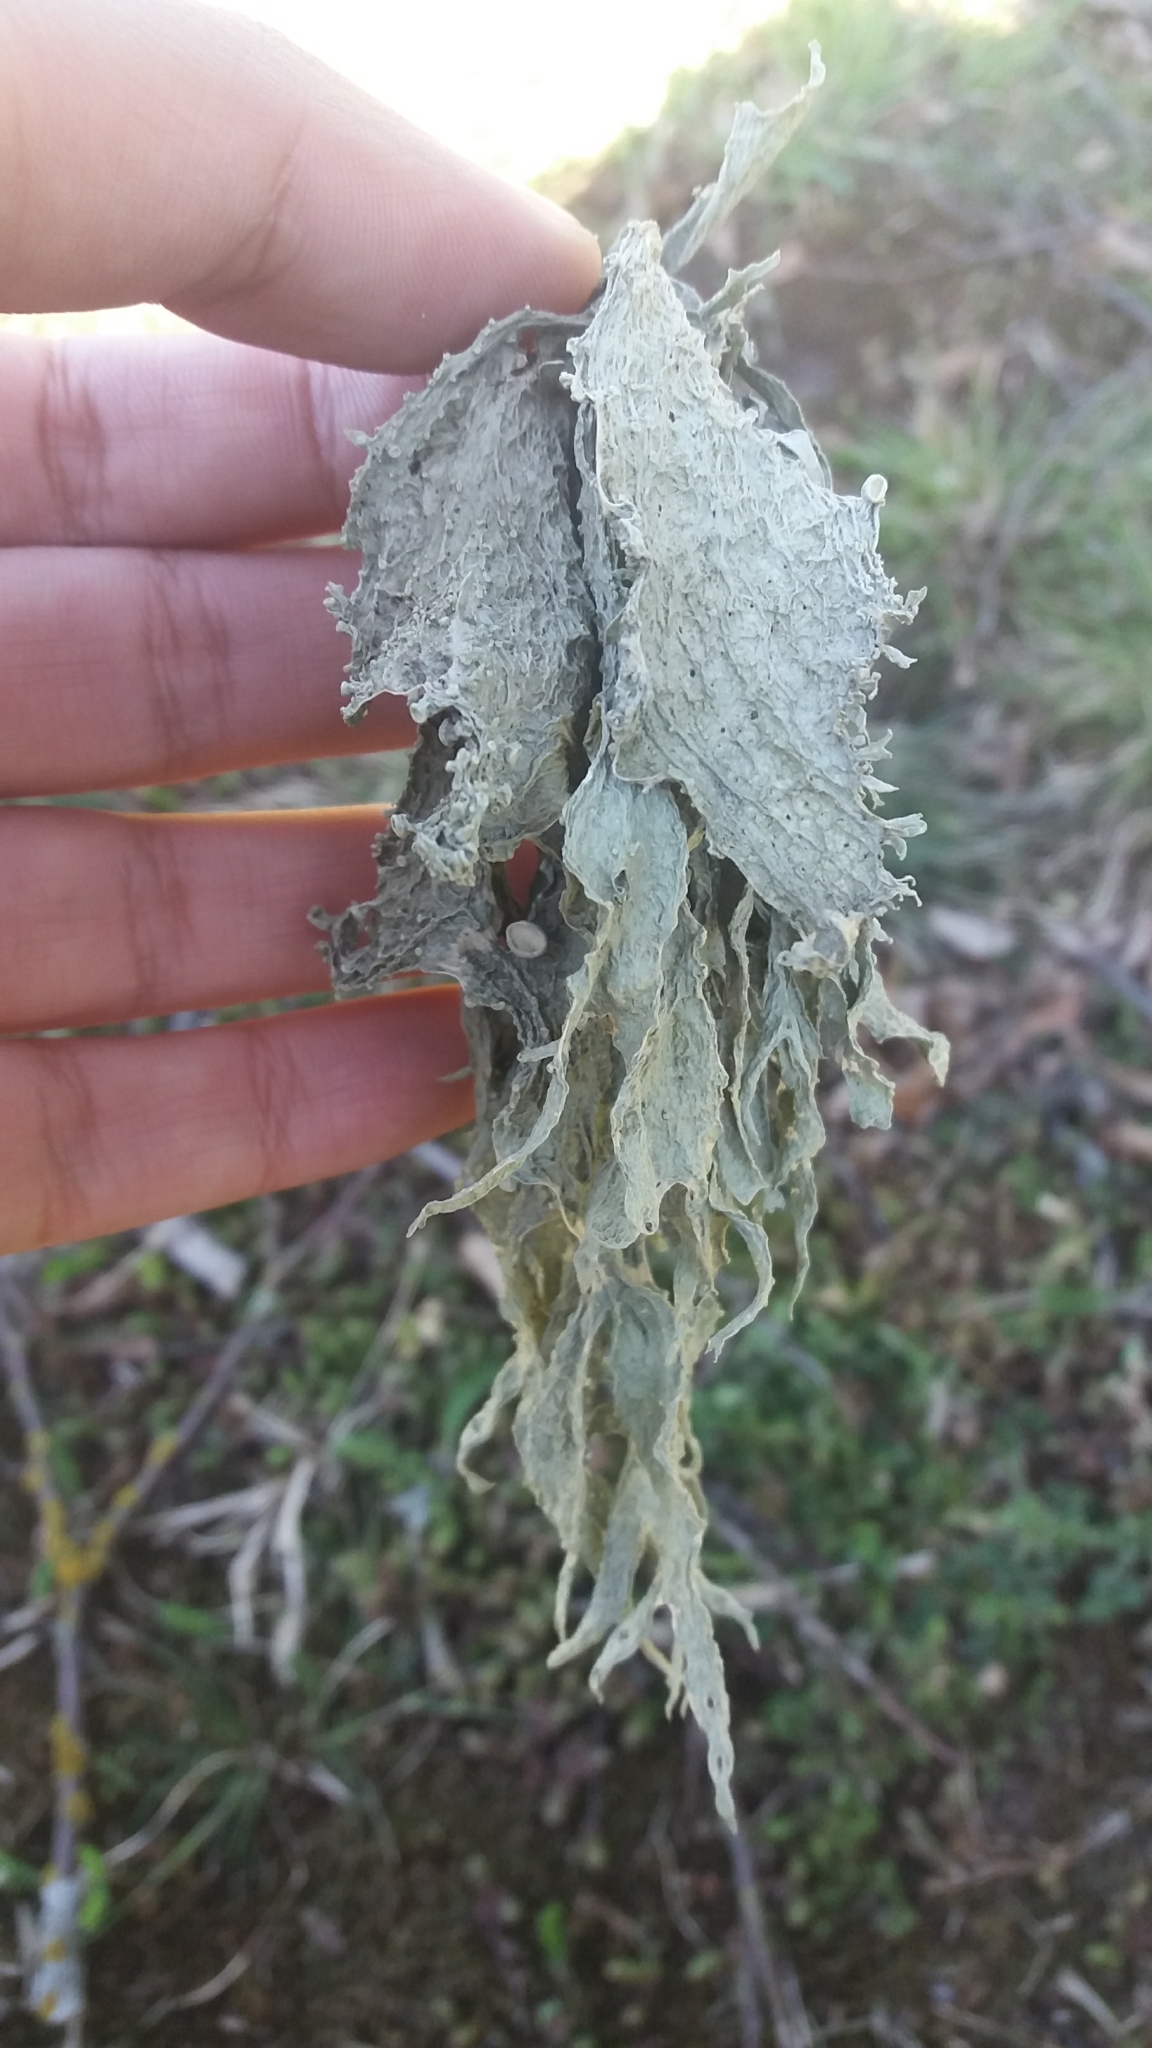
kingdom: Fungi
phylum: Ascomycota
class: Lecanoromycetes
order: Lecanorales
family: Ramalinaceae
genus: Ramalina
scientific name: Ramalina fraxinea
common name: Cartilage lichen
